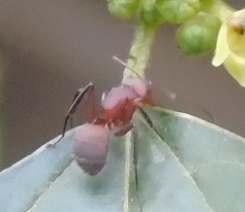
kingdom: Animalia
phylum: Arthropoda
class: Insecta
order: Hymenoptera
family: Formicidae
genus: Camponotus
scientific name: Camponotus rectangularis
